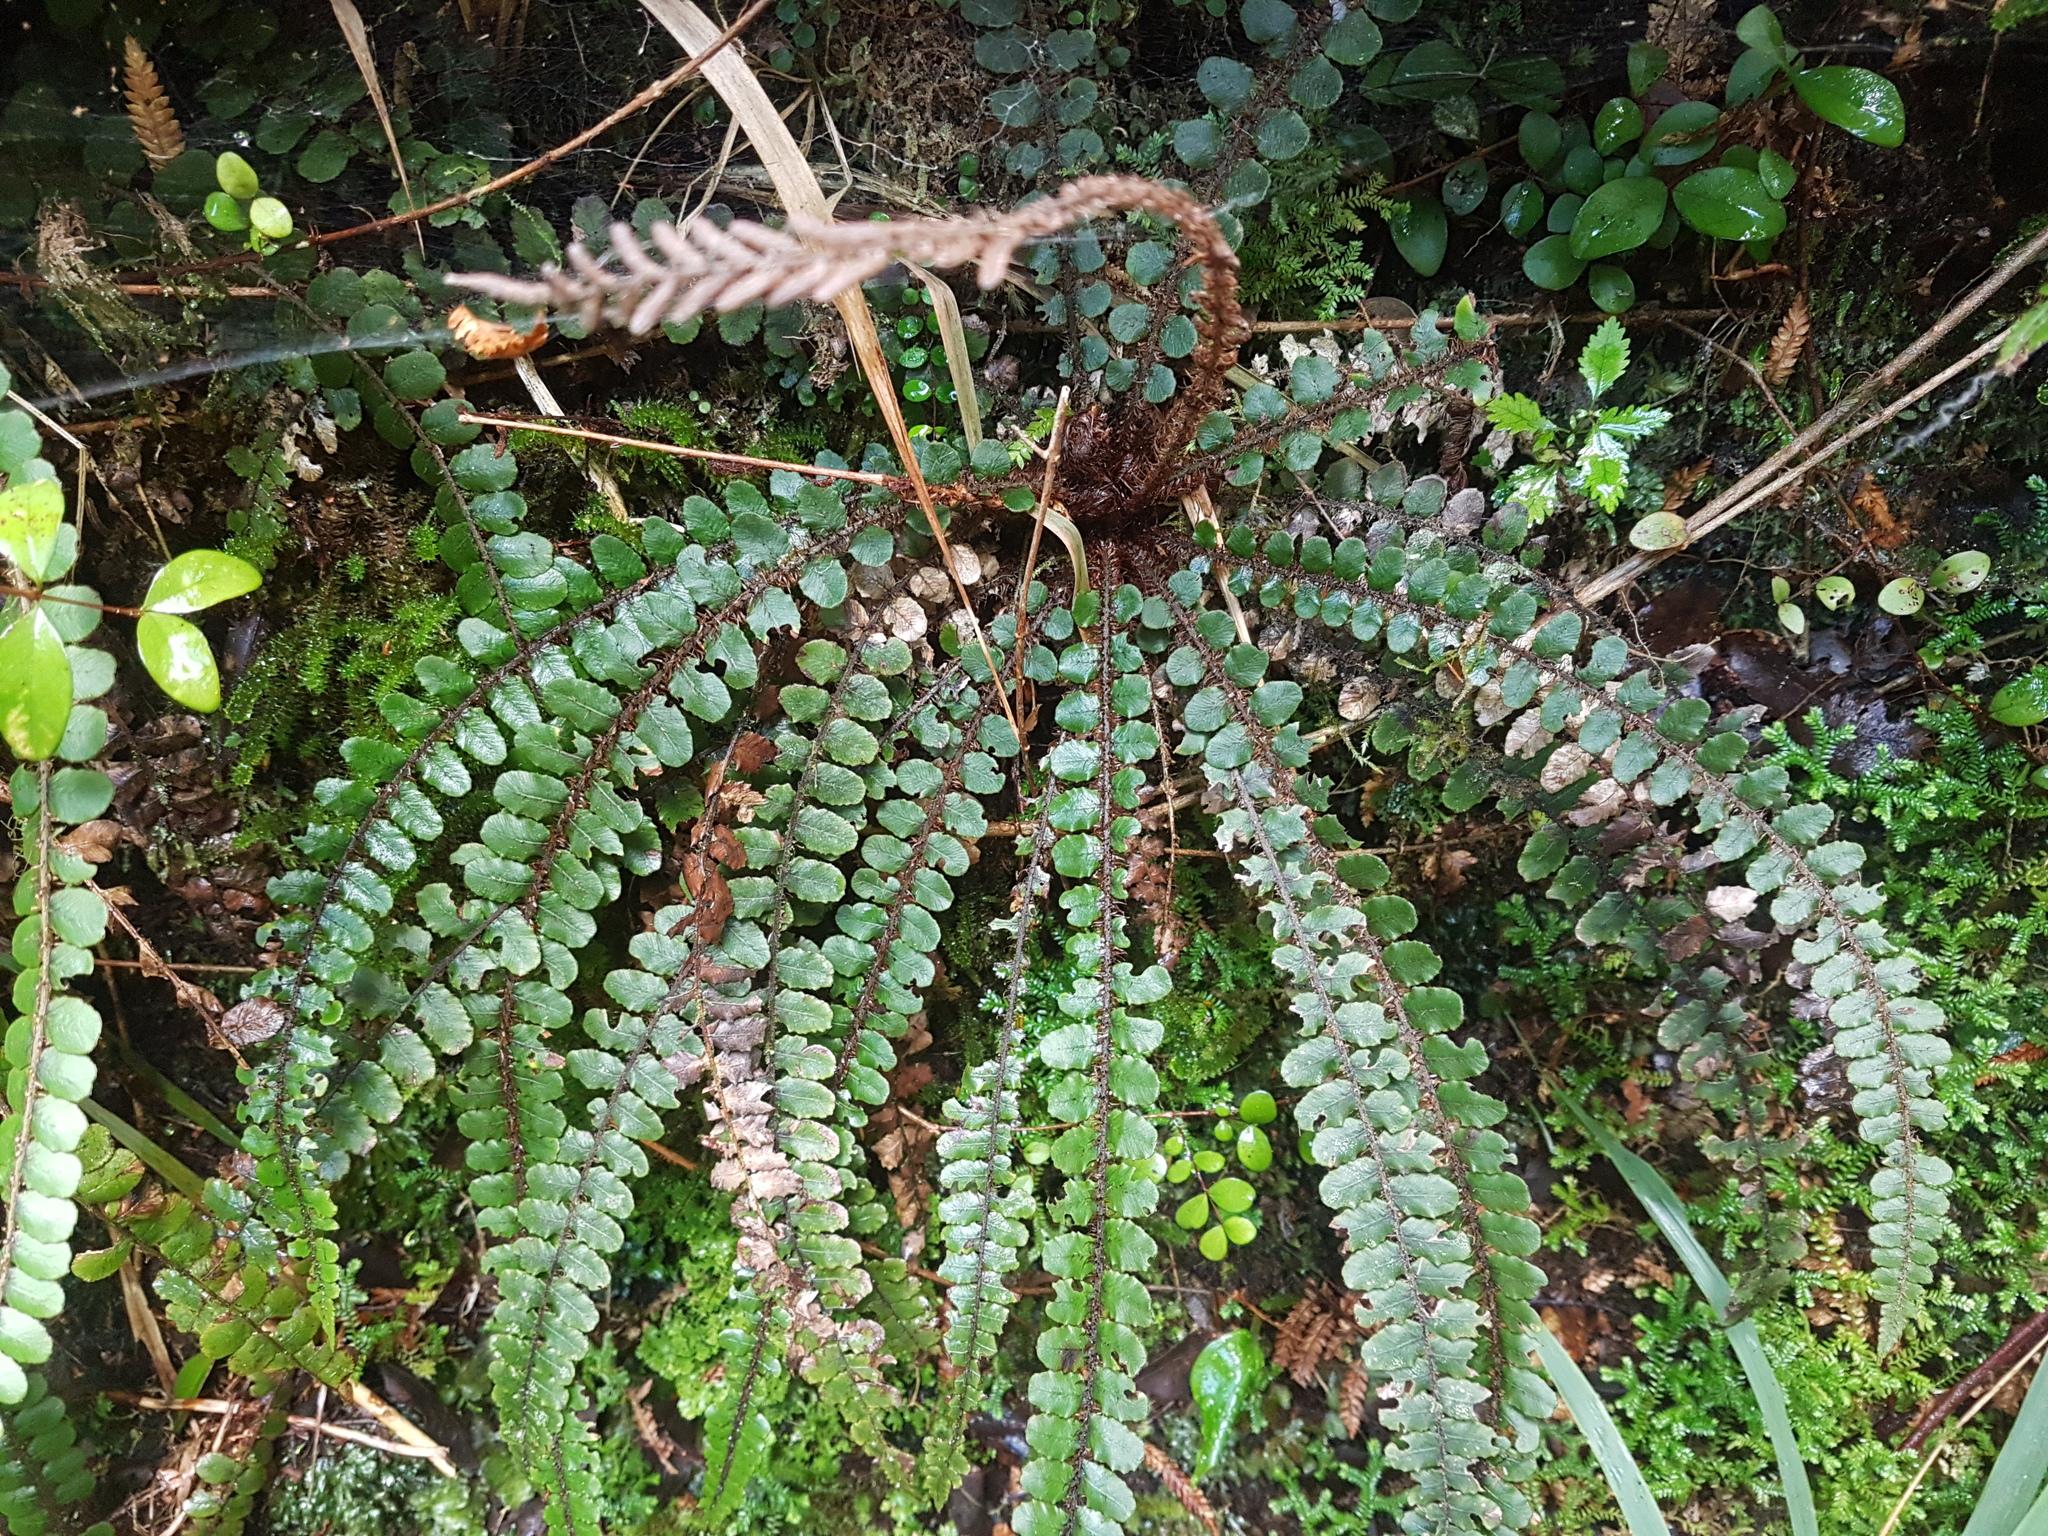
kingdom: Plantae
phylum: Tracheophyta
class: Polypodiopsida
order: Polypodiales
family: Blechnaceae
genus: Cranfillia
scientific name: Cranfillia fluviatilis
